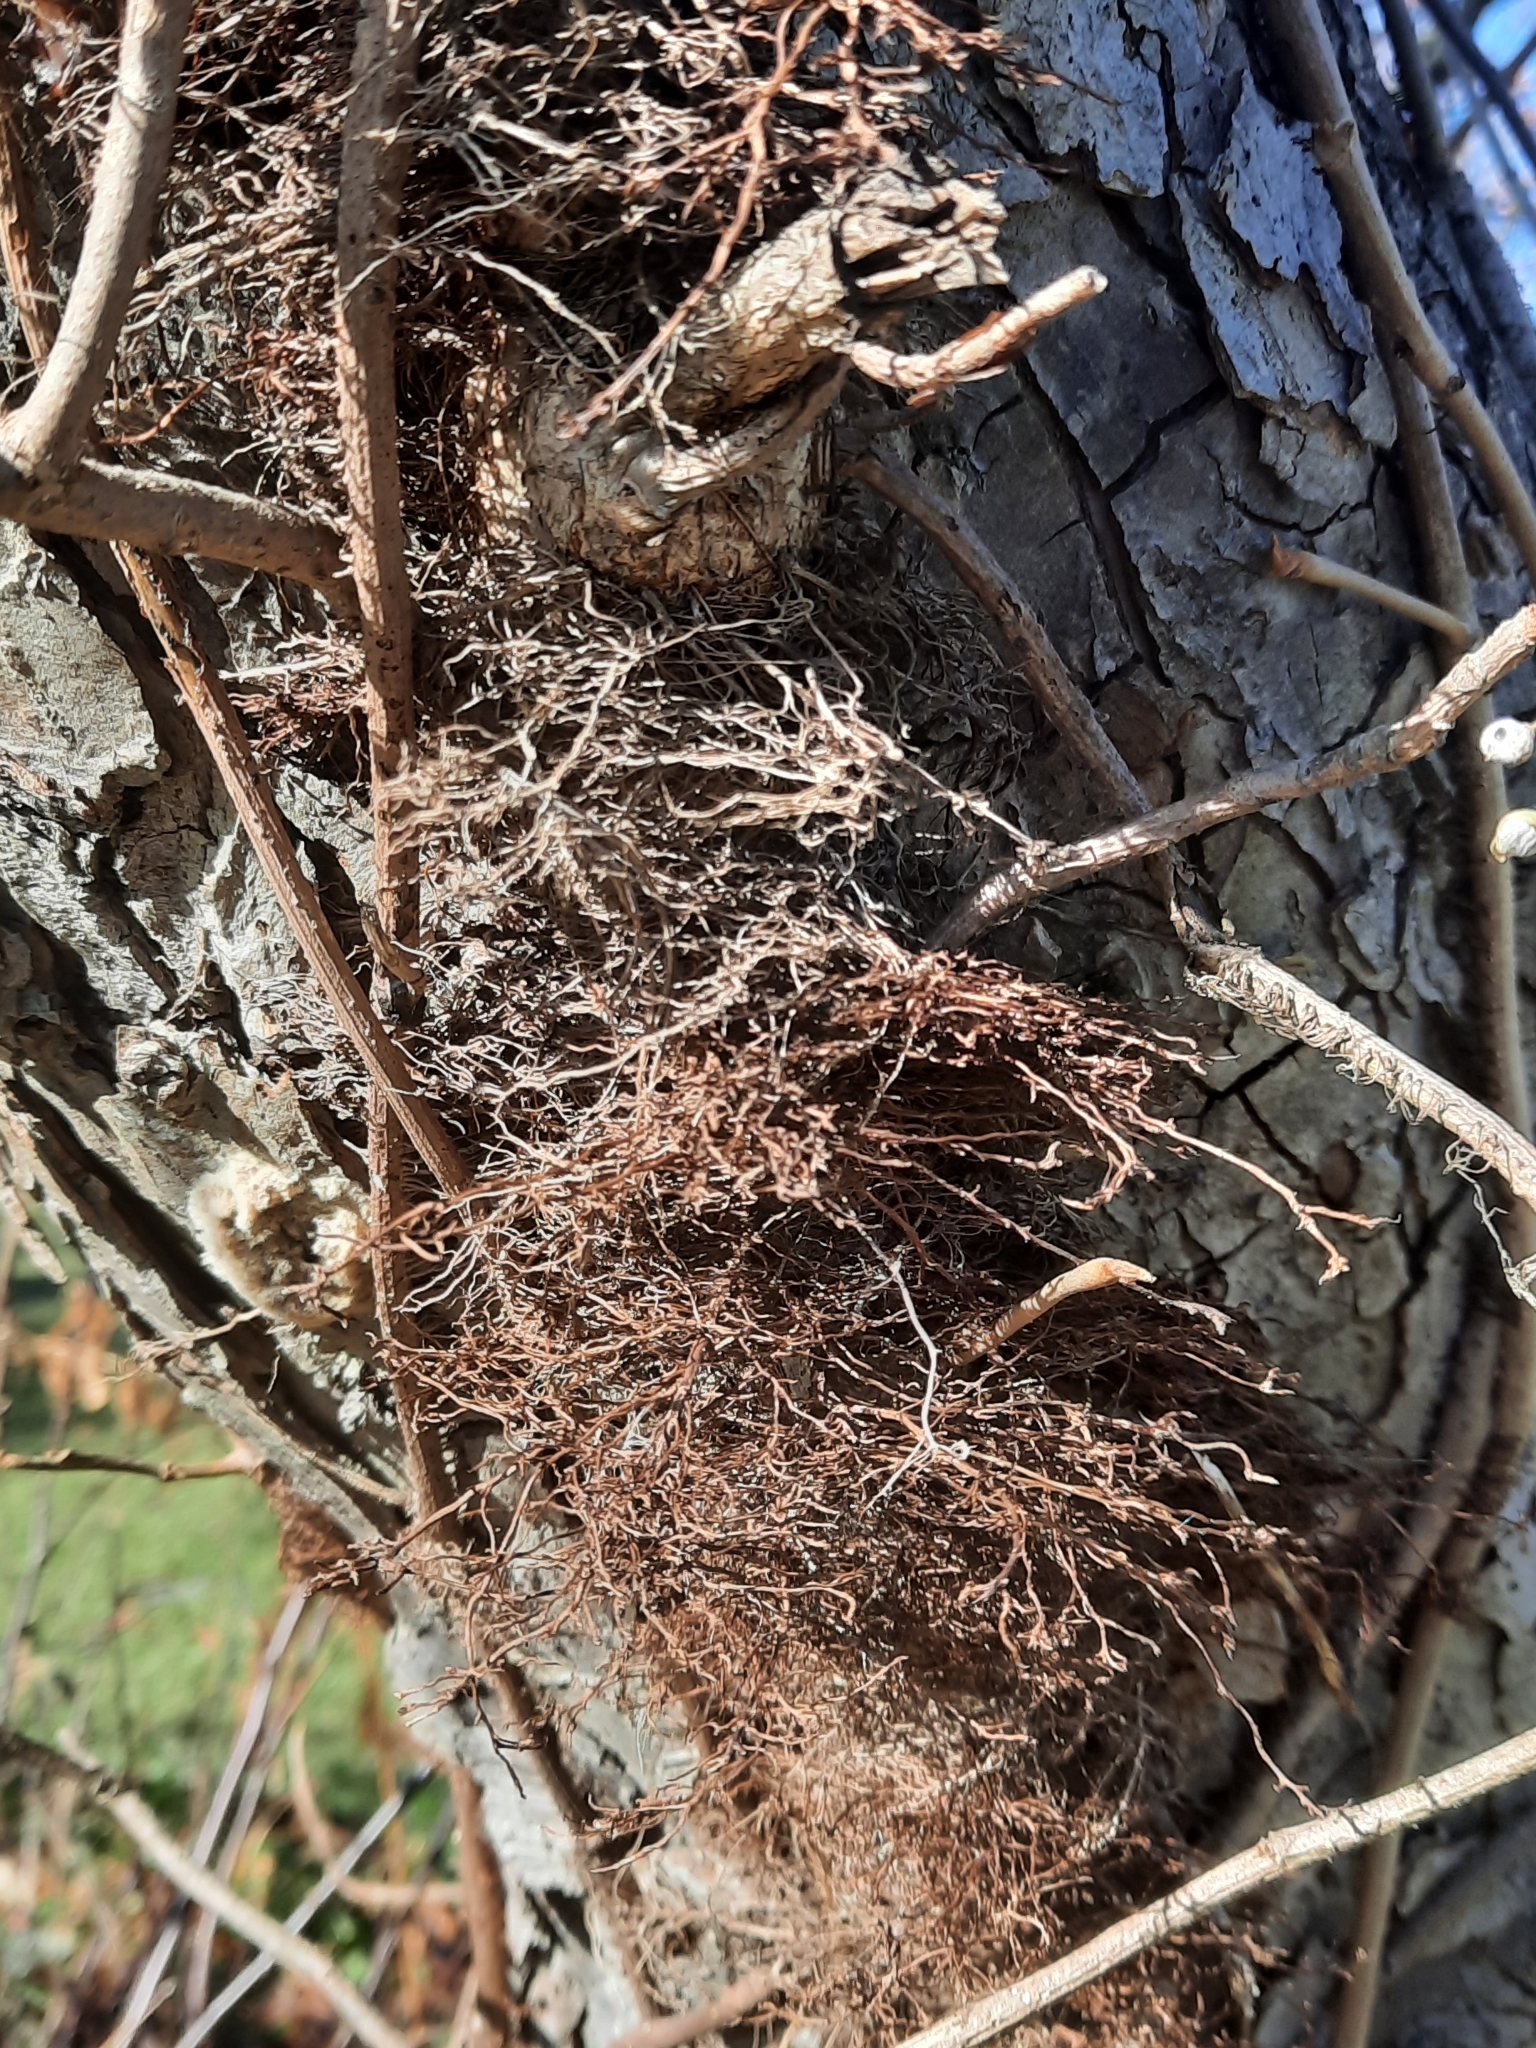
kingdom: Plantae
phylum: Tracheophyta
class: Magnoliopsida
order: Sapindales
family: Anacardiaceae
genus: Toxicodendron
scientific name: Toxicodendron radicans
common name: Poison ivy
